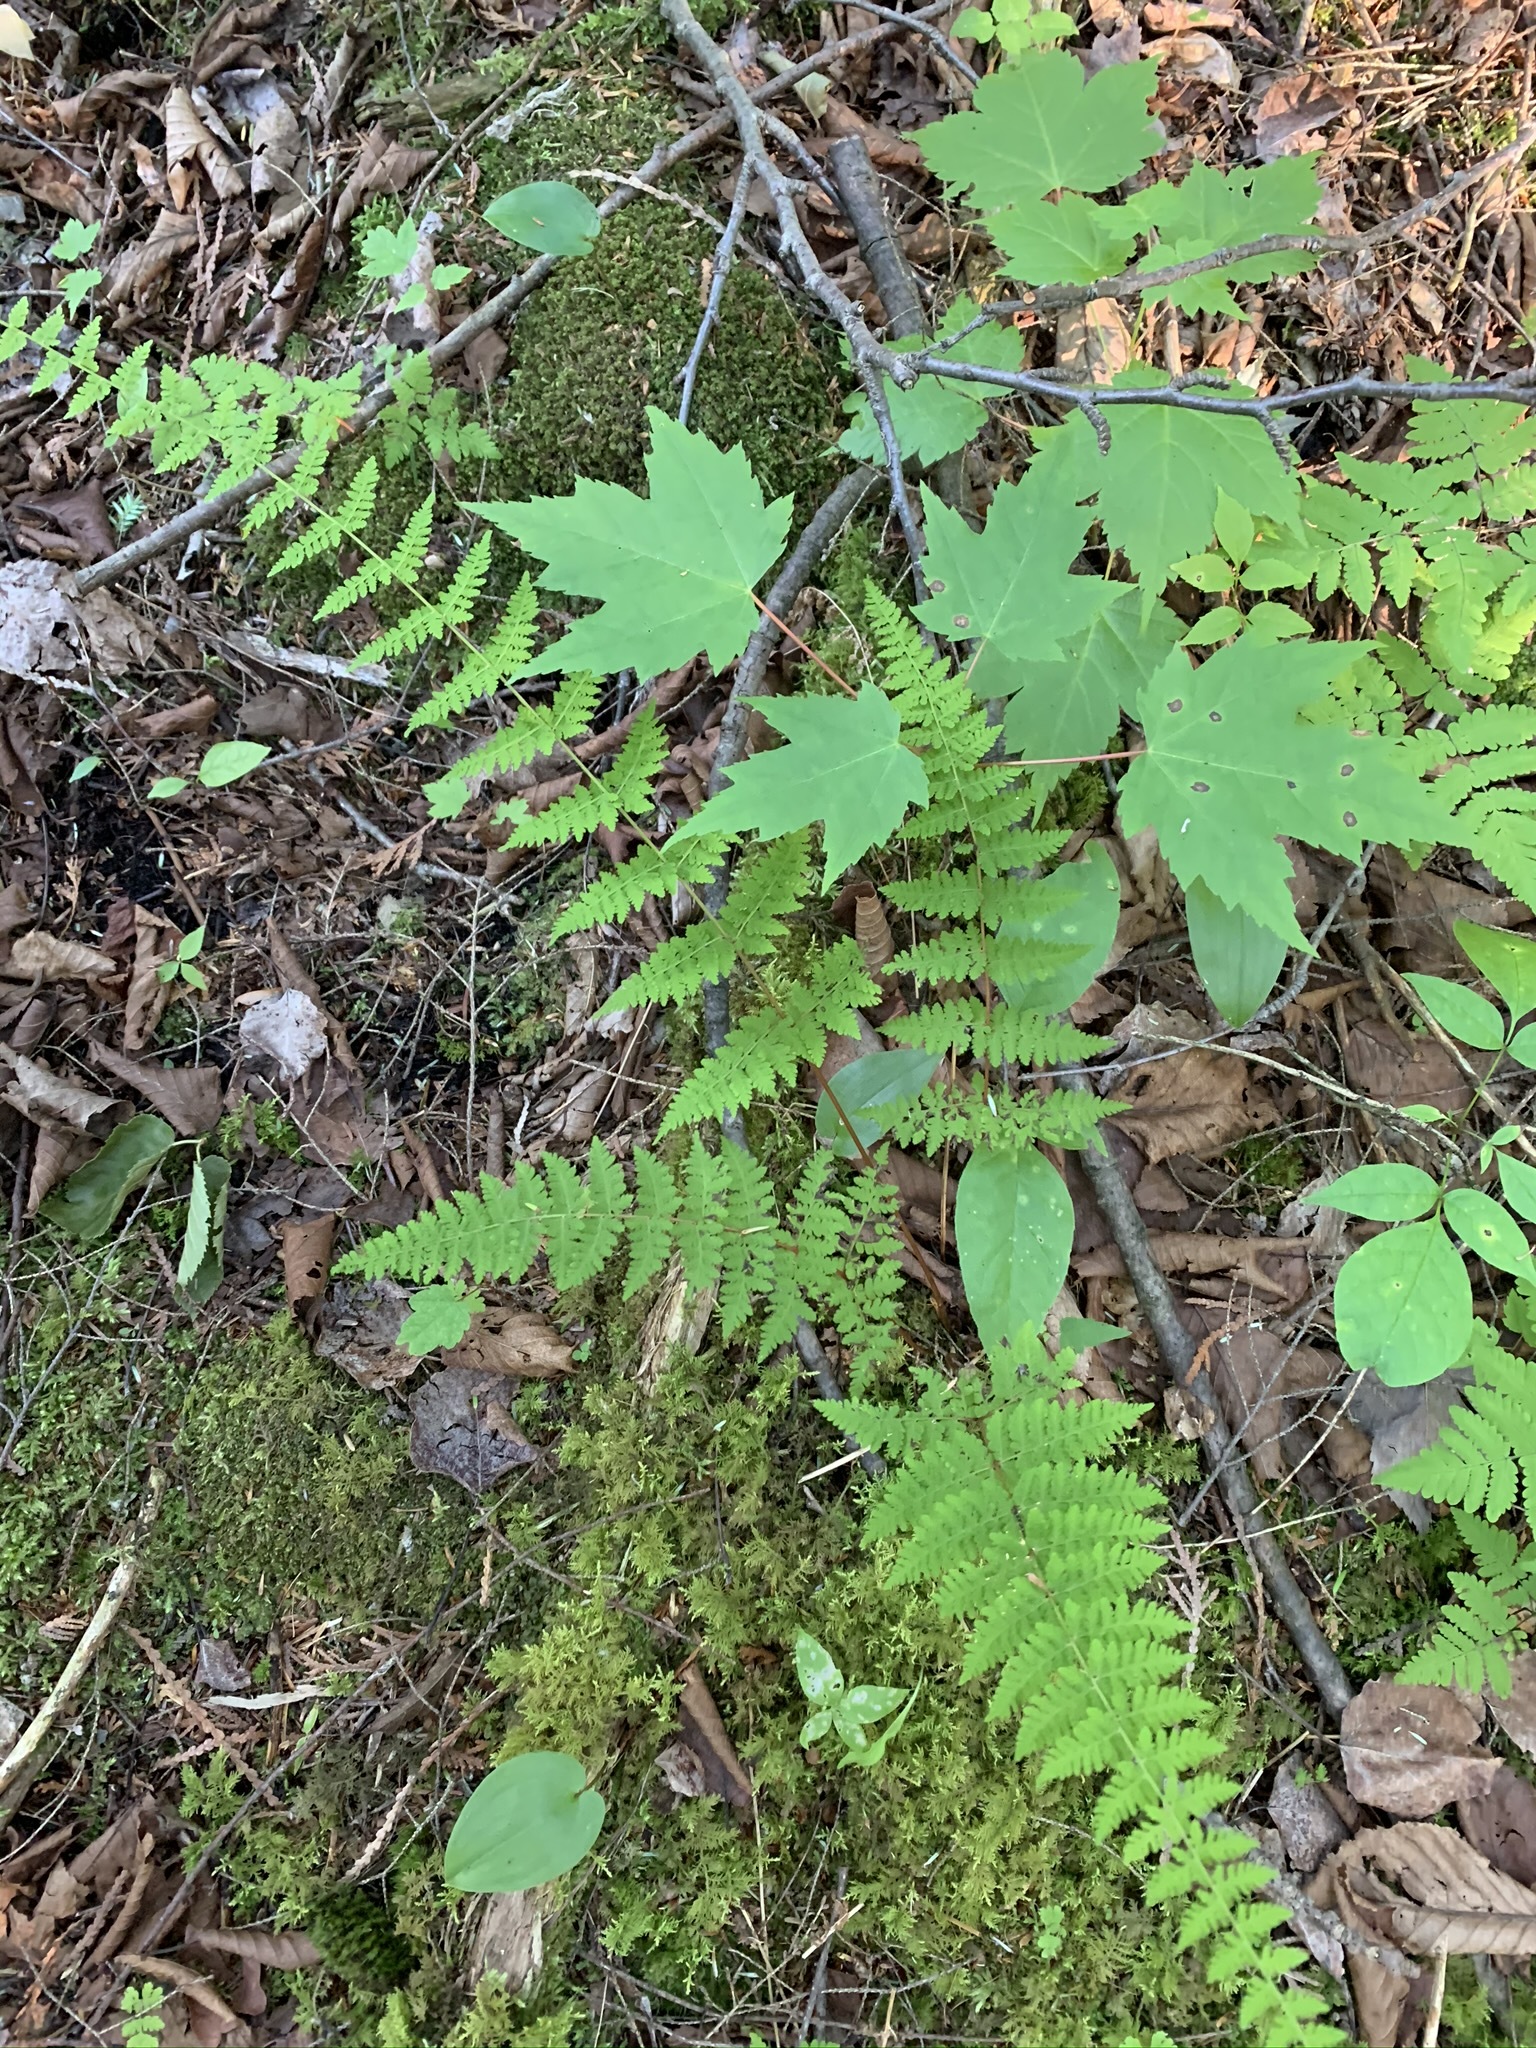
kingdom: Plantae
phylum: Tracheophyta
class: Polypodiopsida
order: Polypodiales
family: Cystopteridaceae
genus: Cystopteris
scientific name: Cystopteris bulbifera
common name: Bulblet bladder fern
